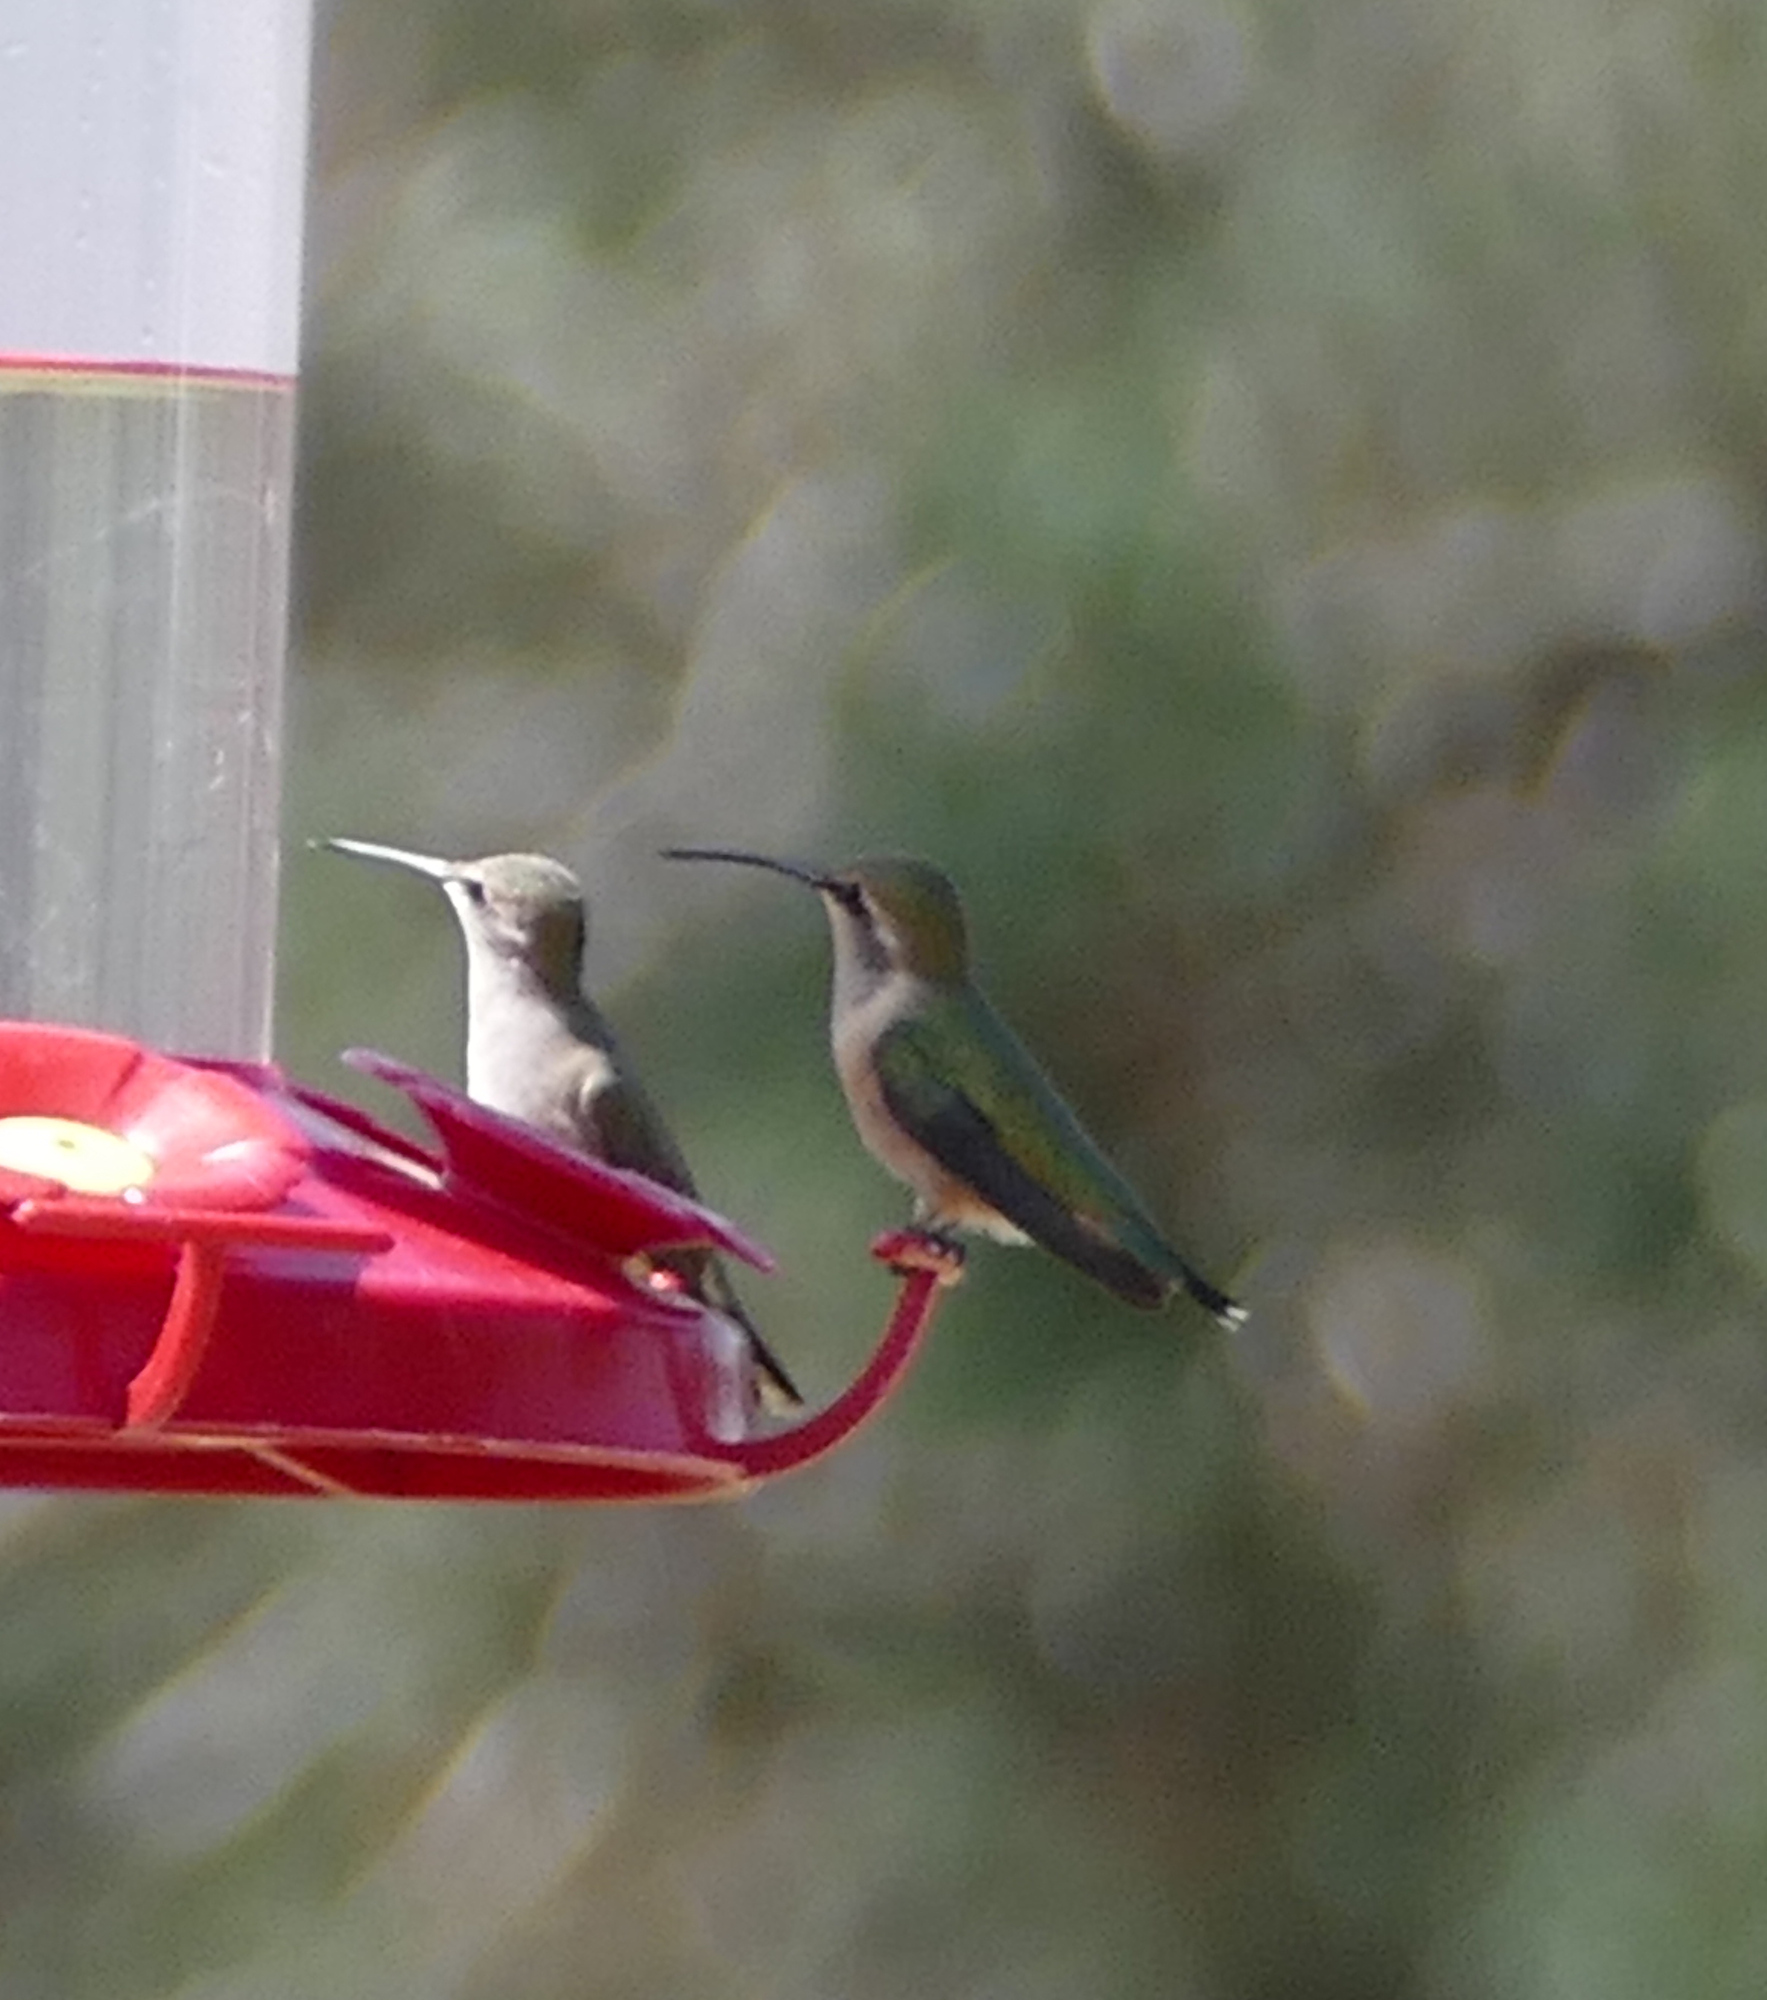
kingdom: Animalia
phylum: Chordata
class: Aves
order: Apodiformes
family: Trochilidae
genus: Calothorax
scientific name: Calothorax lucifer
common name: Lucifer sheartail
